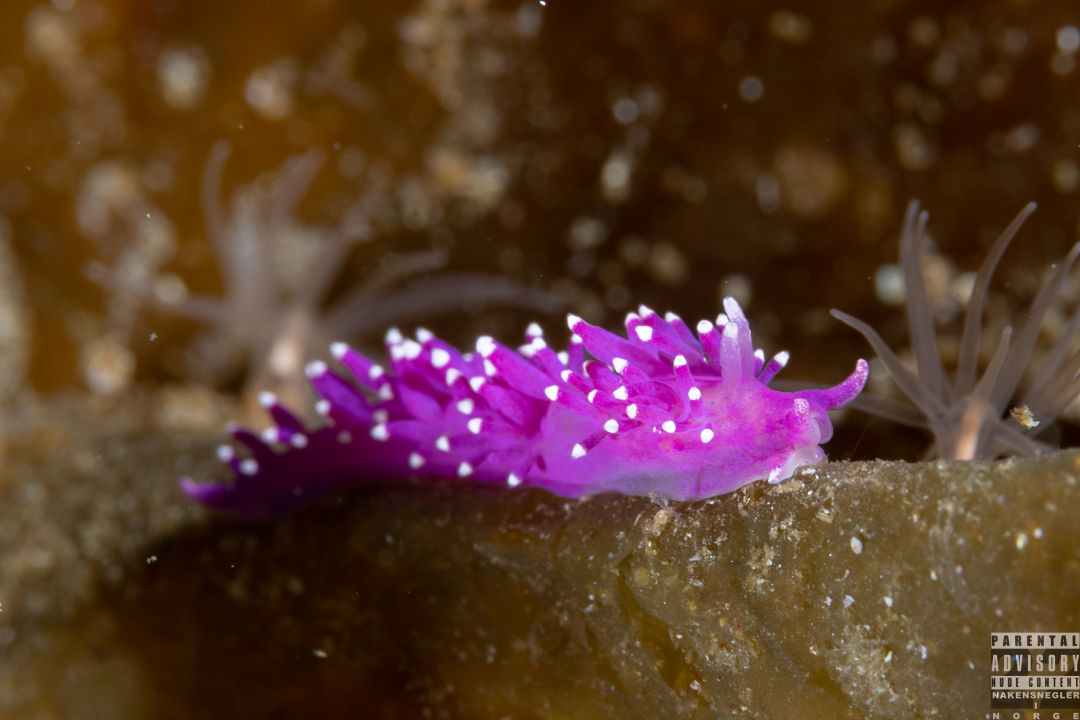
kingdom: Animalia
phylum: Mollusca
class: Gastropoda
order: Nudibranchia
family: Flabellinidae
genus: Edmundsella
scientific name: Edmundsella pedata
